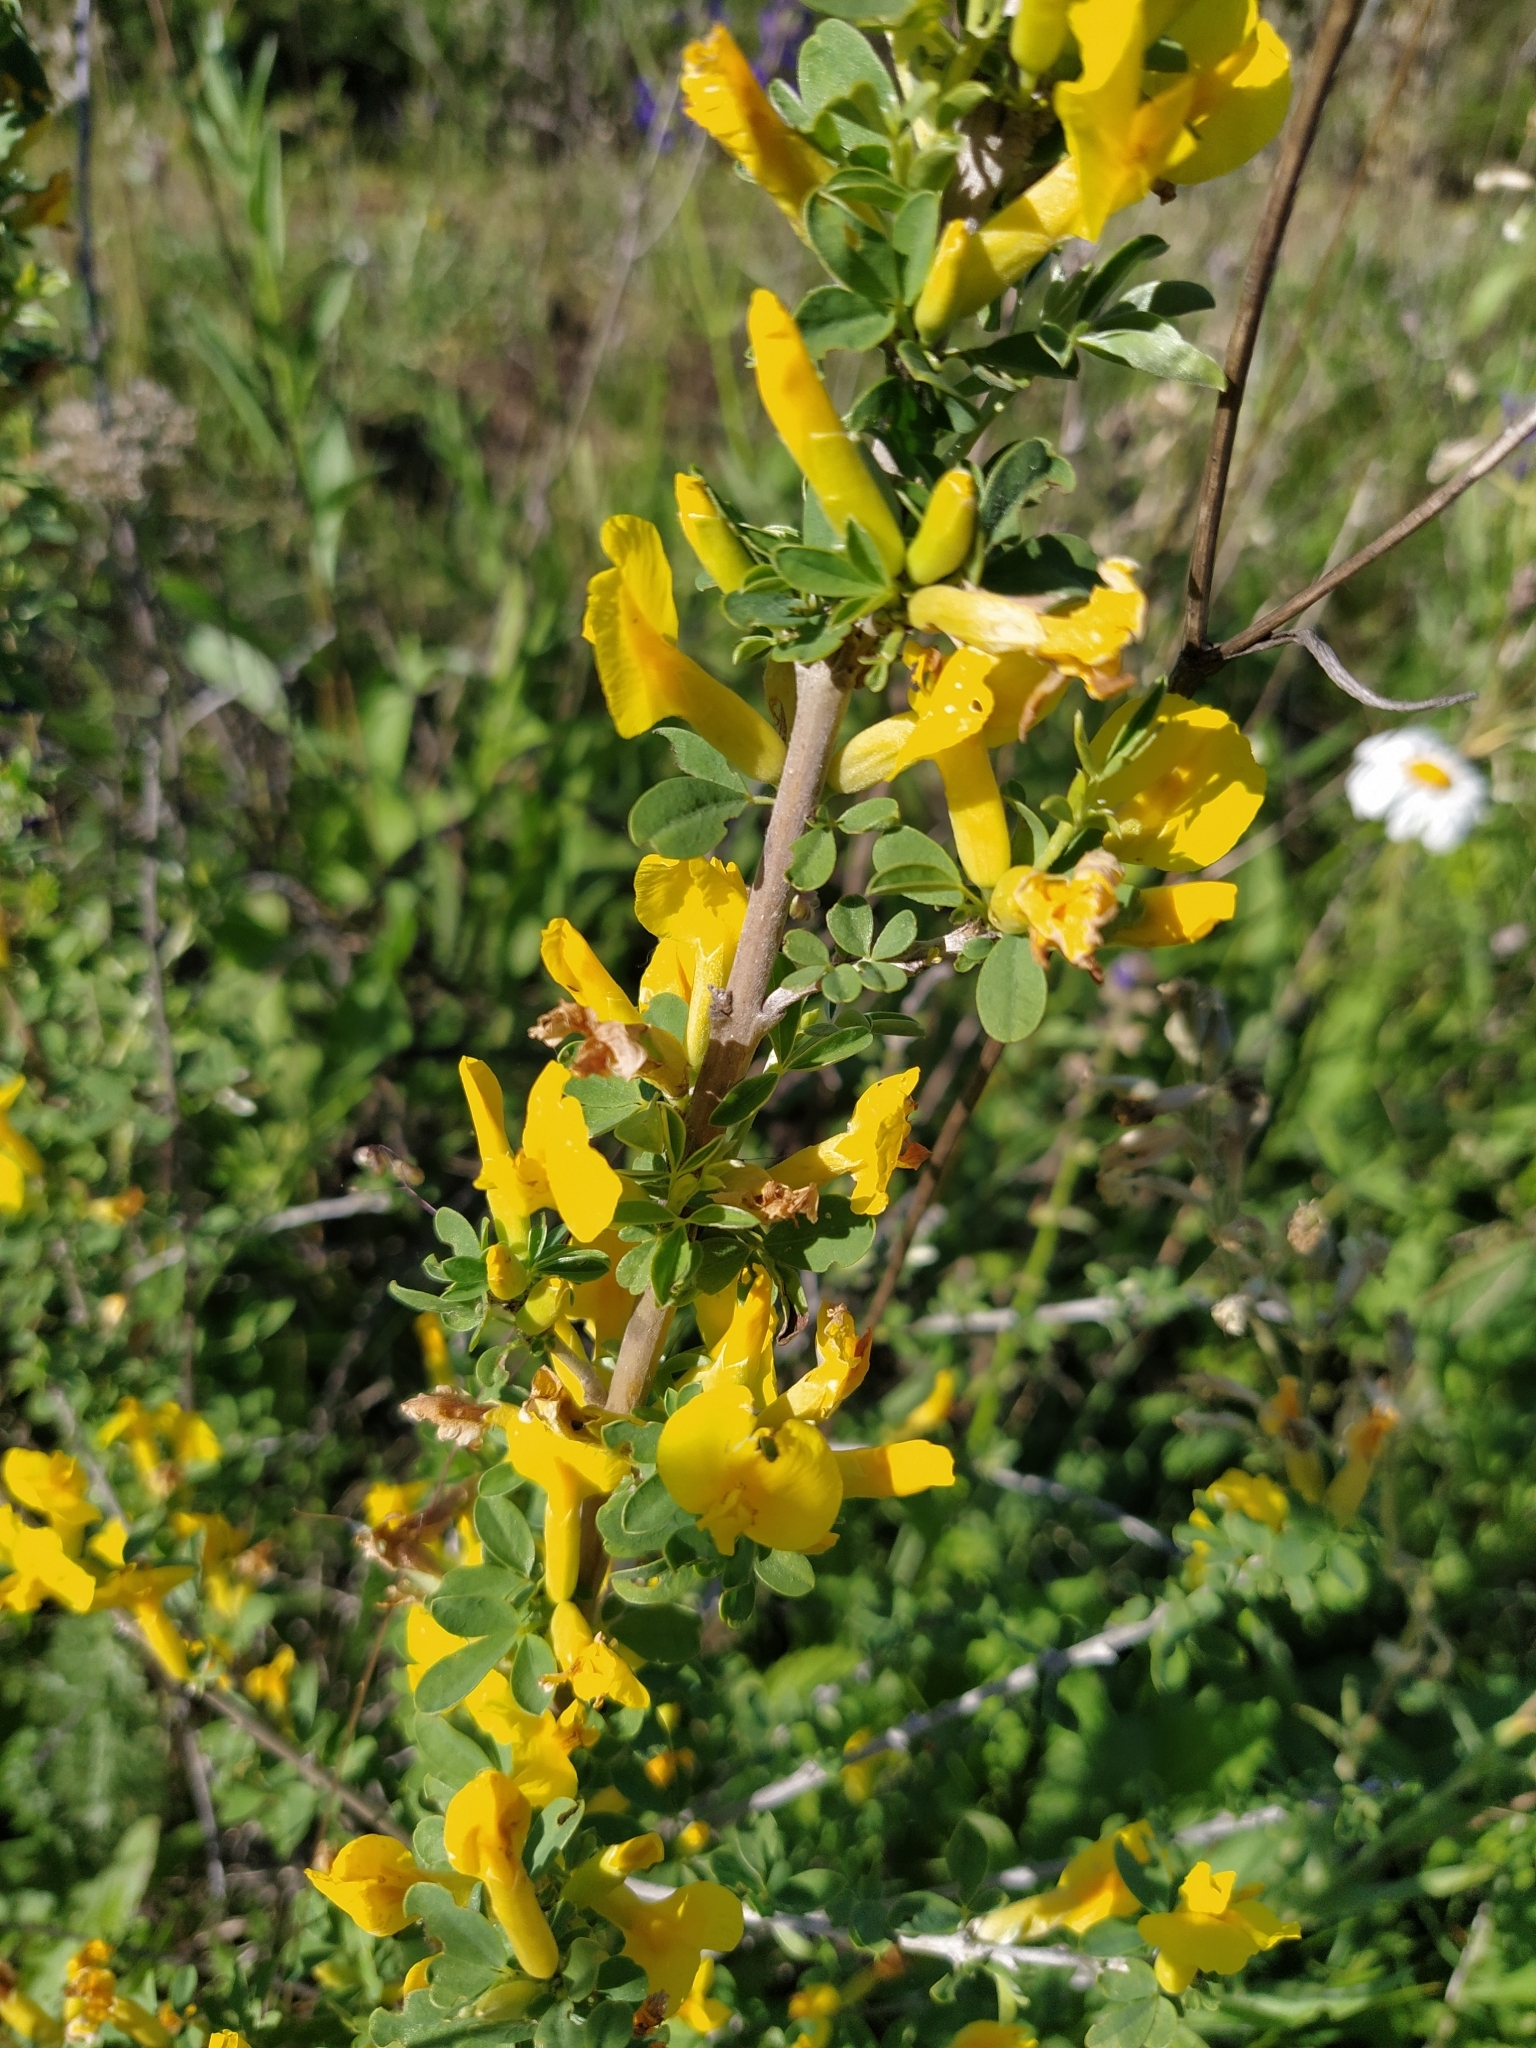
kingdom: Plantae
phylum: Tracheophyta
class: Magnoliopsida
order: Fabales
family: Fabaceae
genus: Chamaecytisus
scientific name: Chamaecytisus ruthenicus
